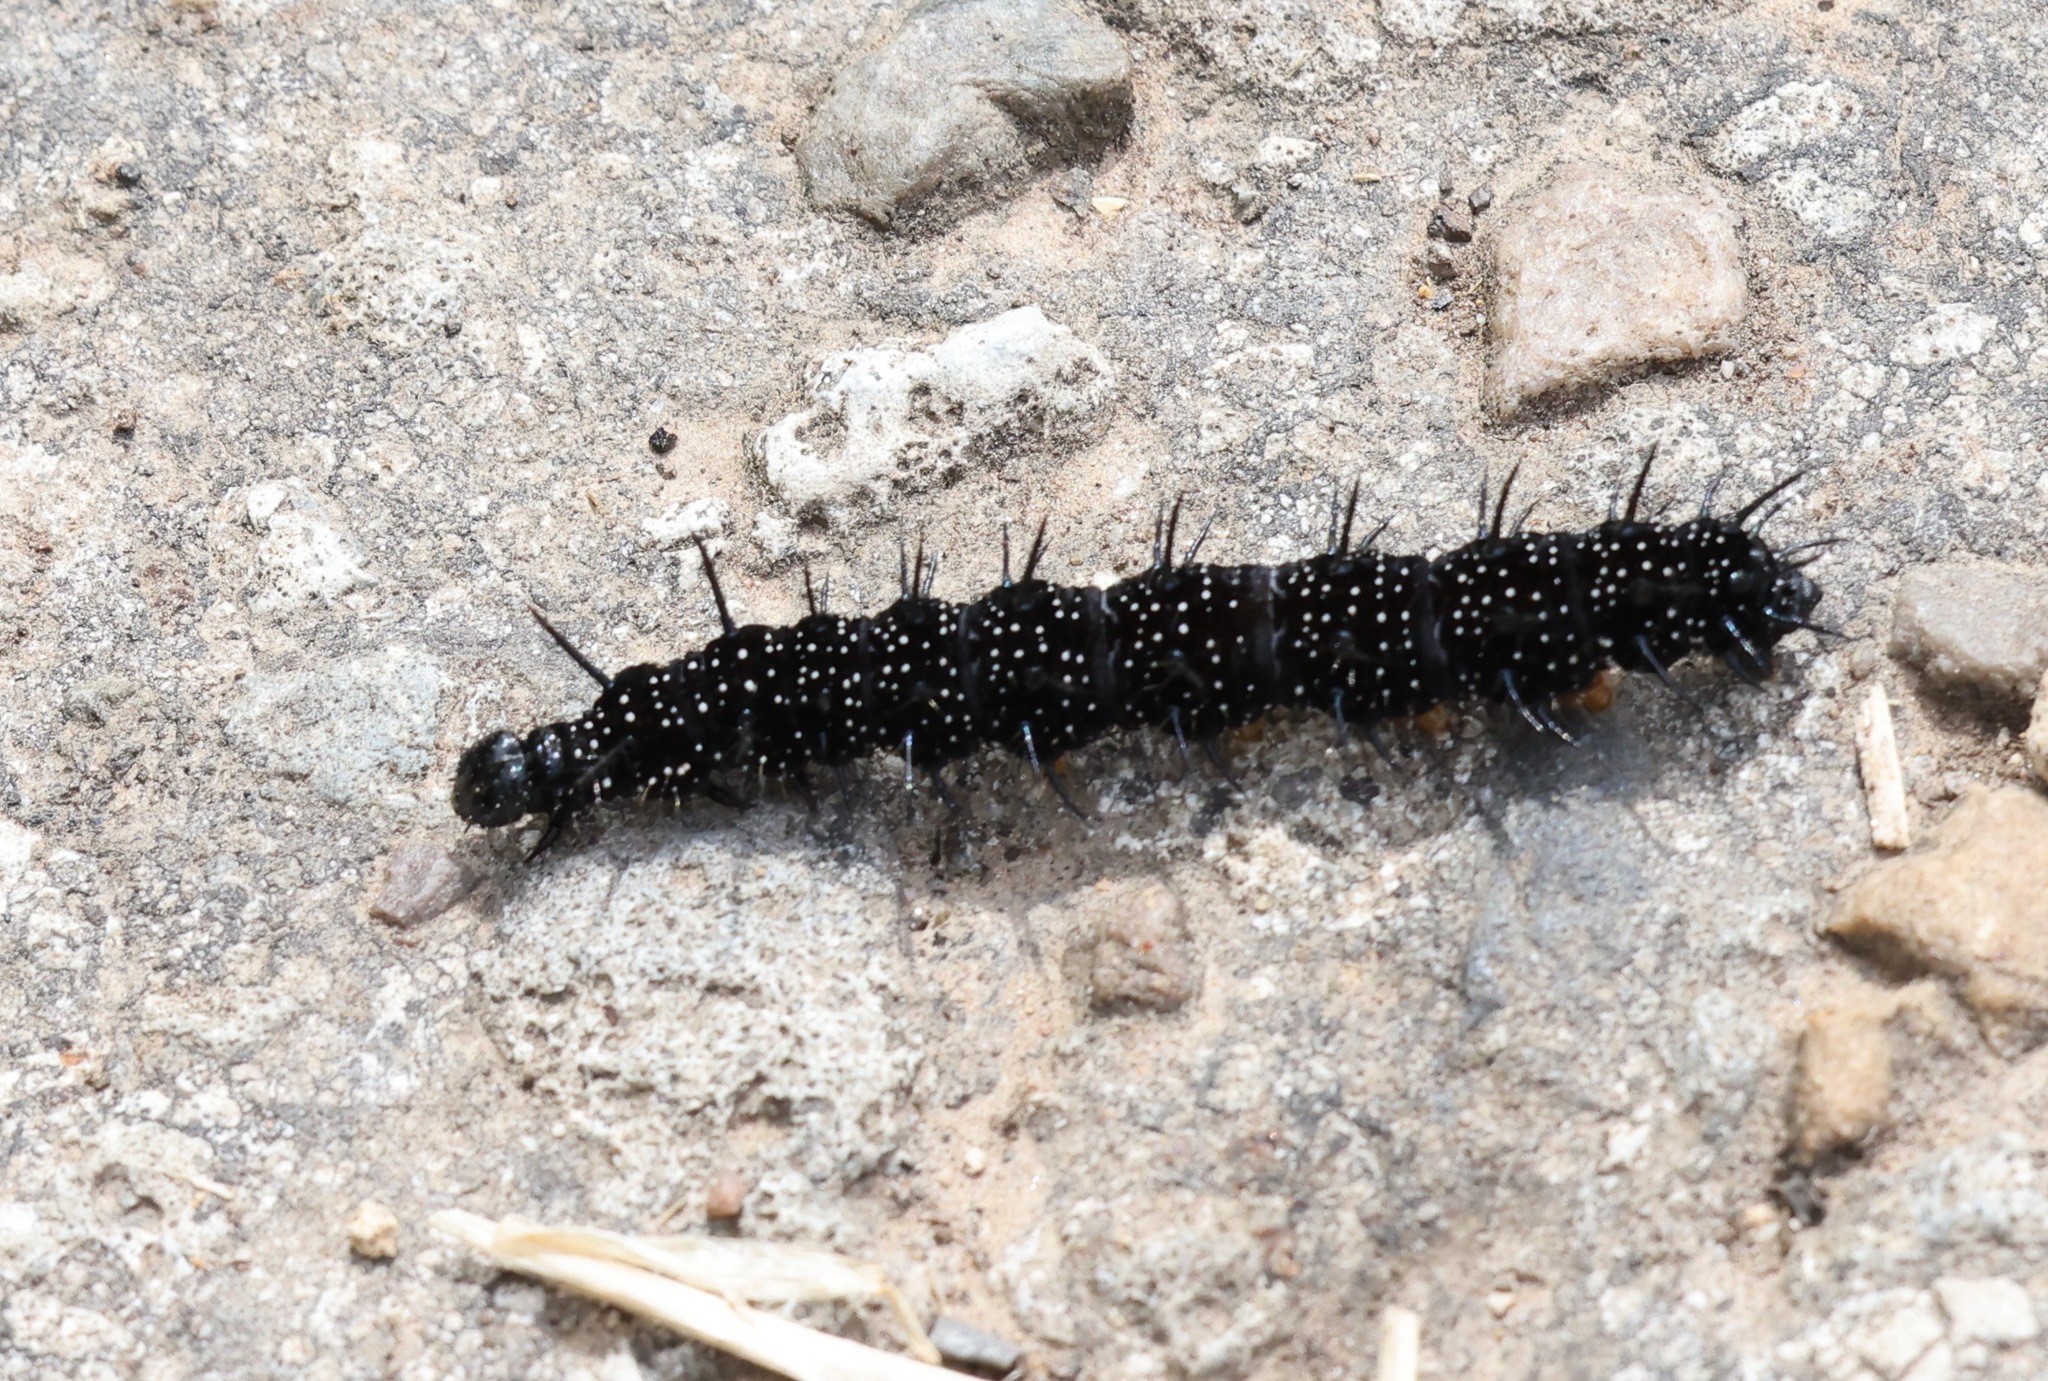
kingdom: Animalia
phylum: Arthropoda
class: Insecta
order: Lepidoptera
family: Nymphalidae
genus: Aglais
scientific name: Aglais io
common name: Peacock
